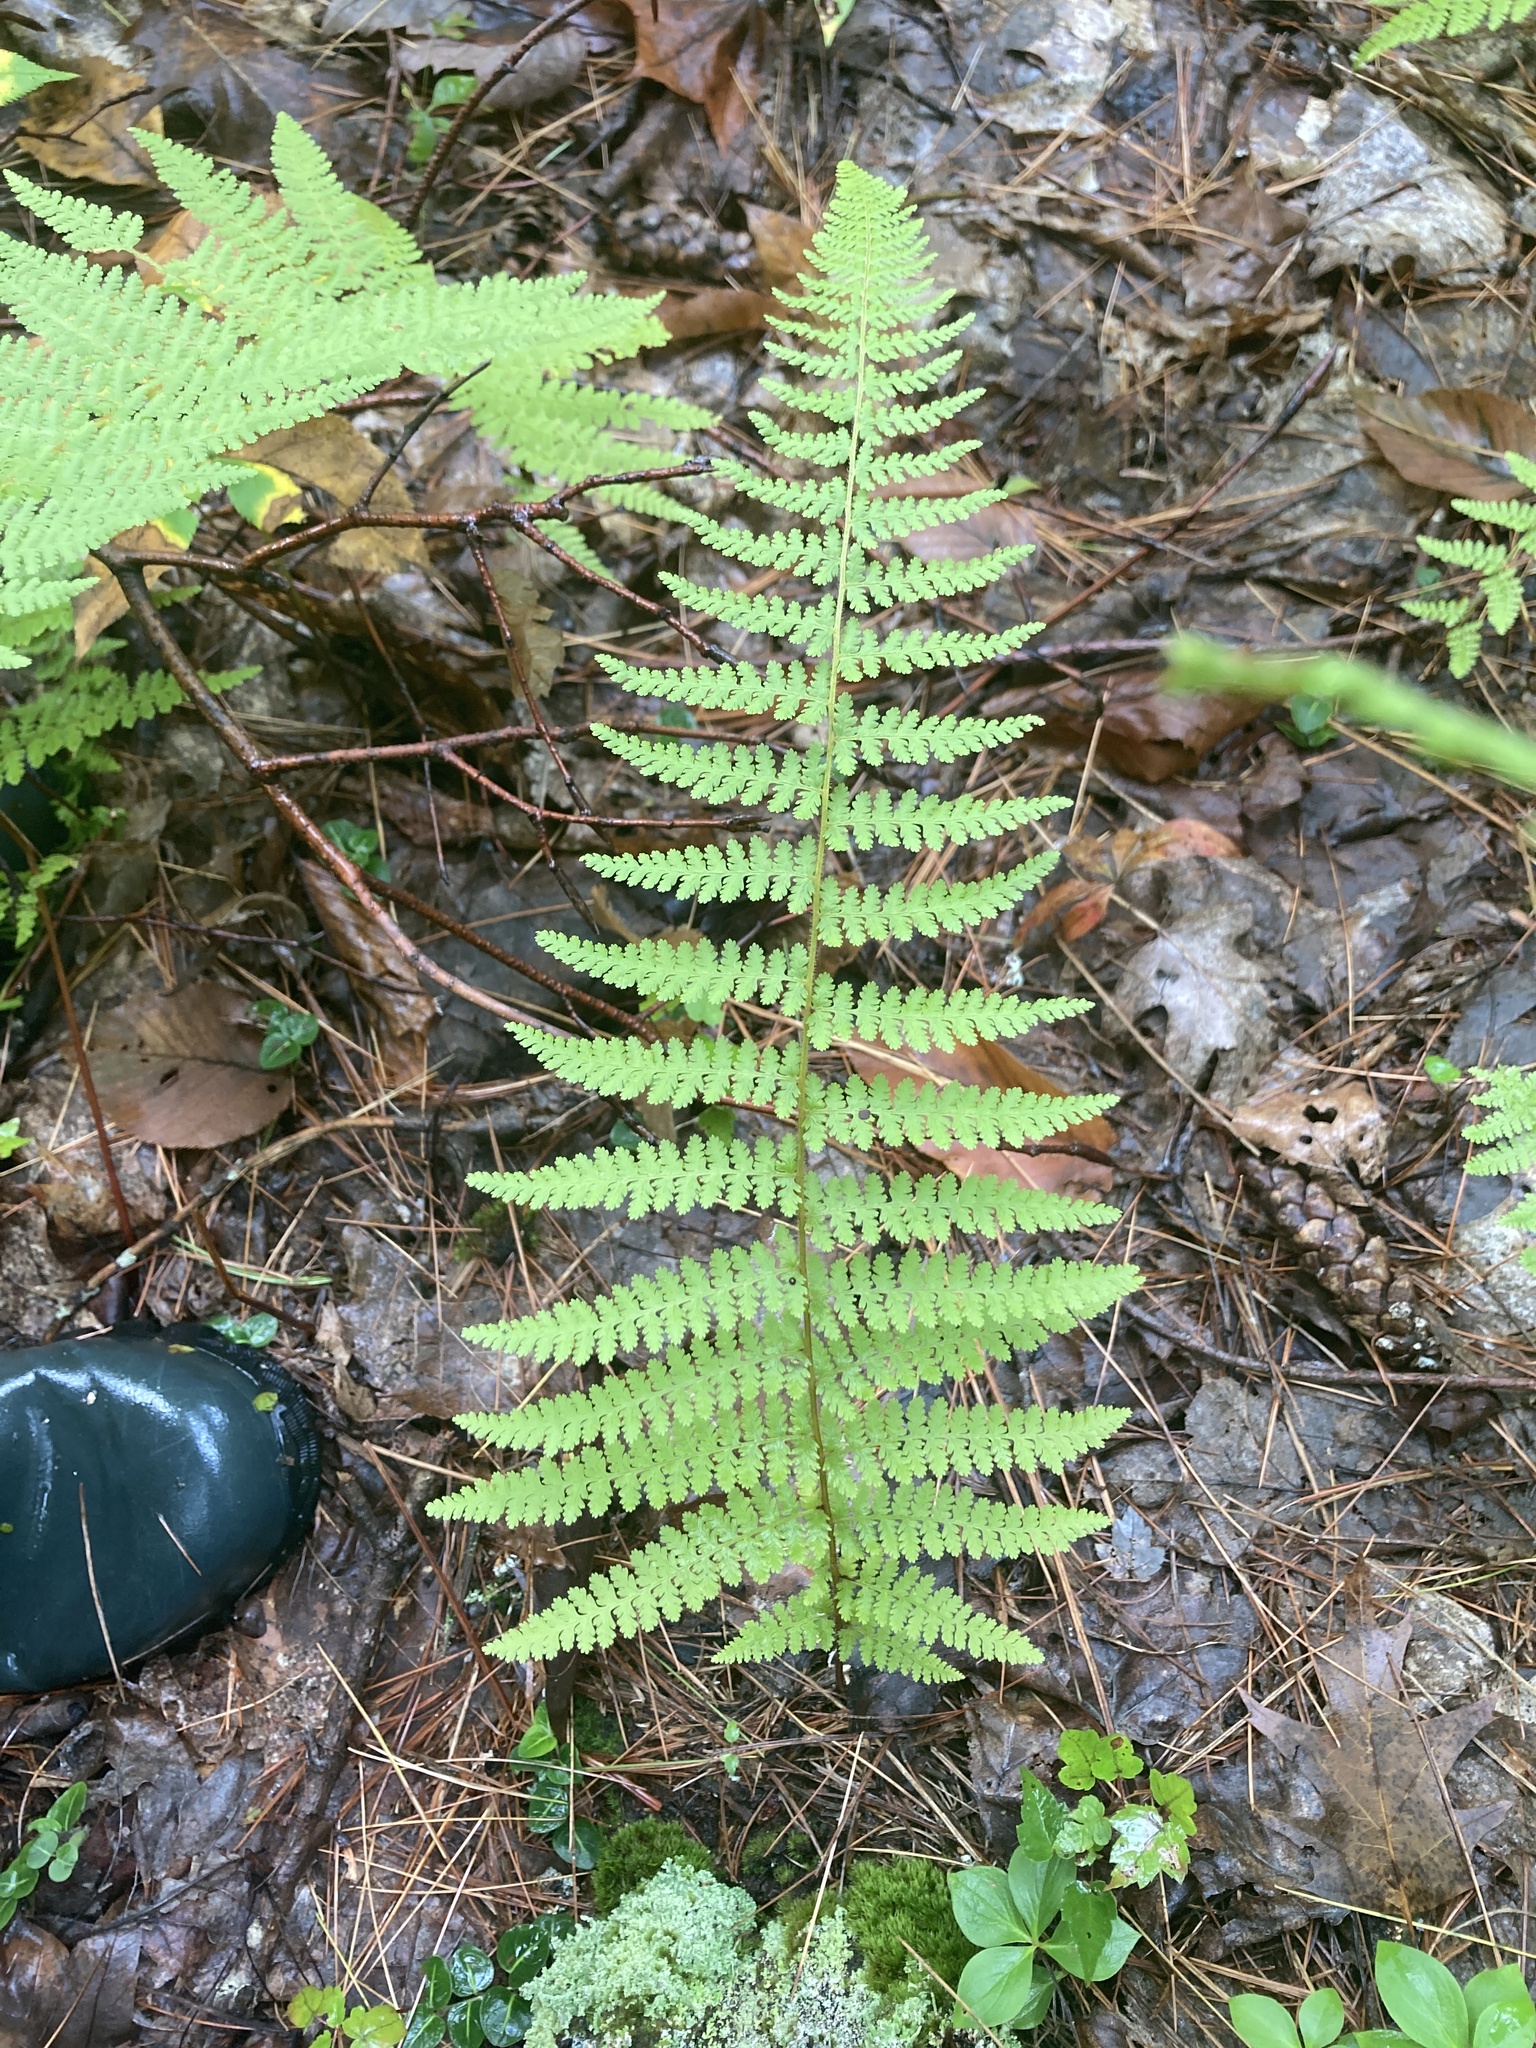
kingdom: Plantae
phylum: Tracheophyta
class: Polypodiopsida
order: Polypodiales
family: Dennstaedtiaceae
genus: Sitobolium
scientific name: Sitobolium punctilobum
